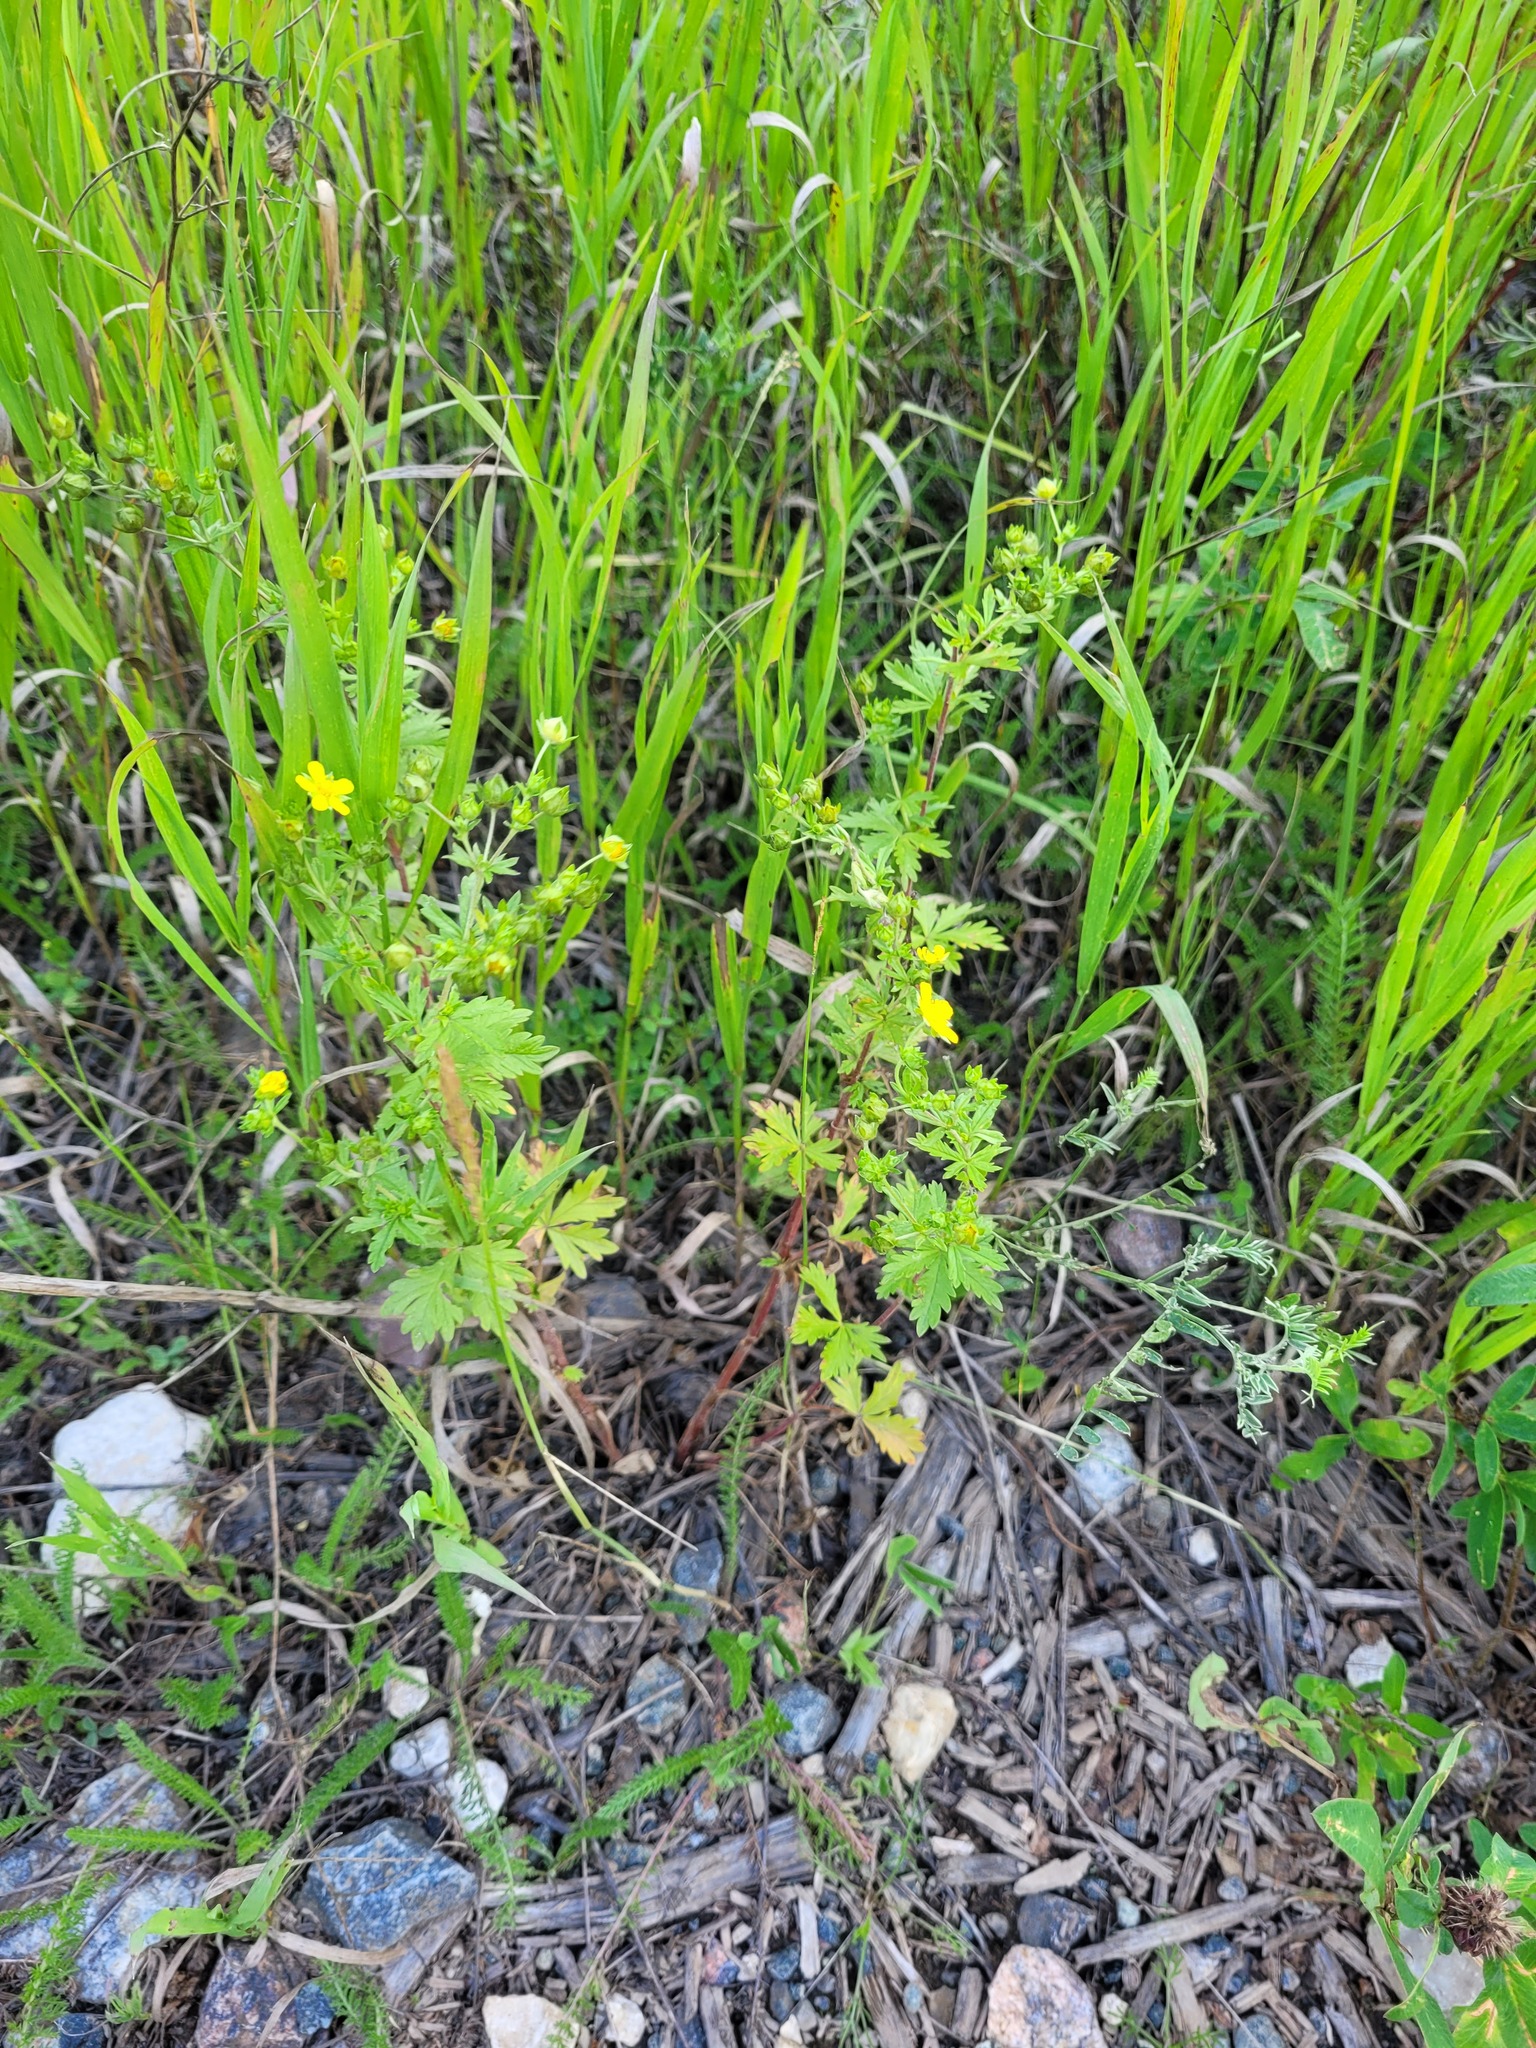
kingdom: Plantae
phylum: Tracheophyta
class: Magnoliopsida
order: Rosales
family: Rosaceae
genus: Potentilla
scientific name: Potentilla intermedia
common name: Downy cinquefoil
